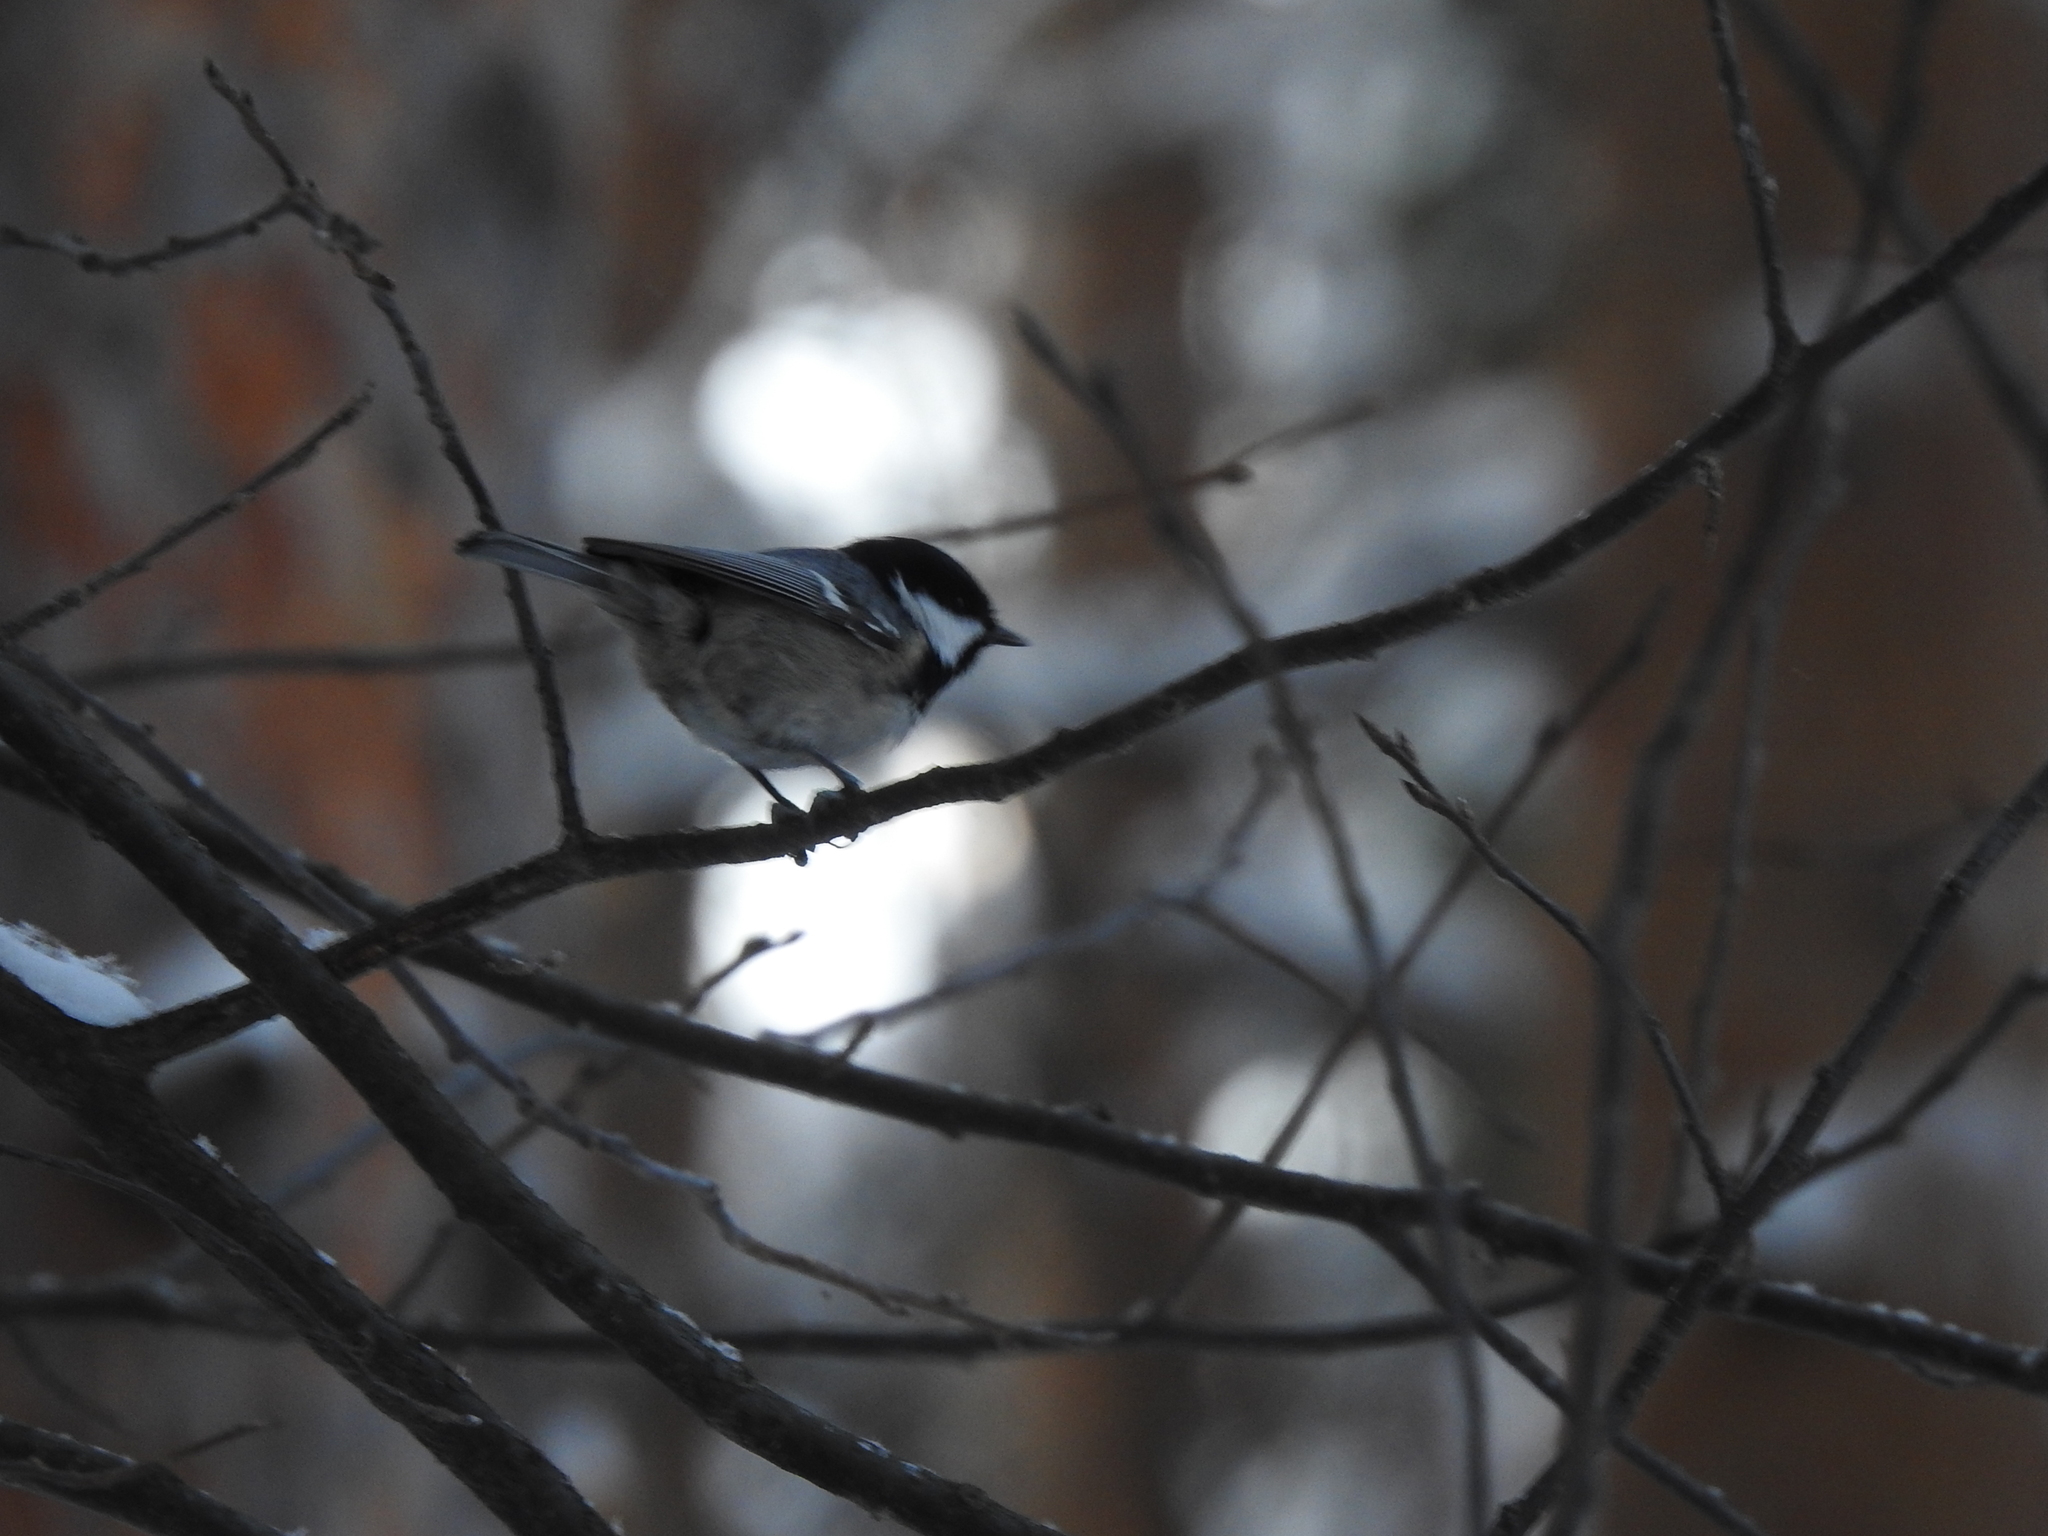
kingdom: Animalia
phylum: Chordata
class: Aves
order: Passeriformes
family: Paridae
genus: Periparus
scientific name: Periparus ater
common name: Coal tit
